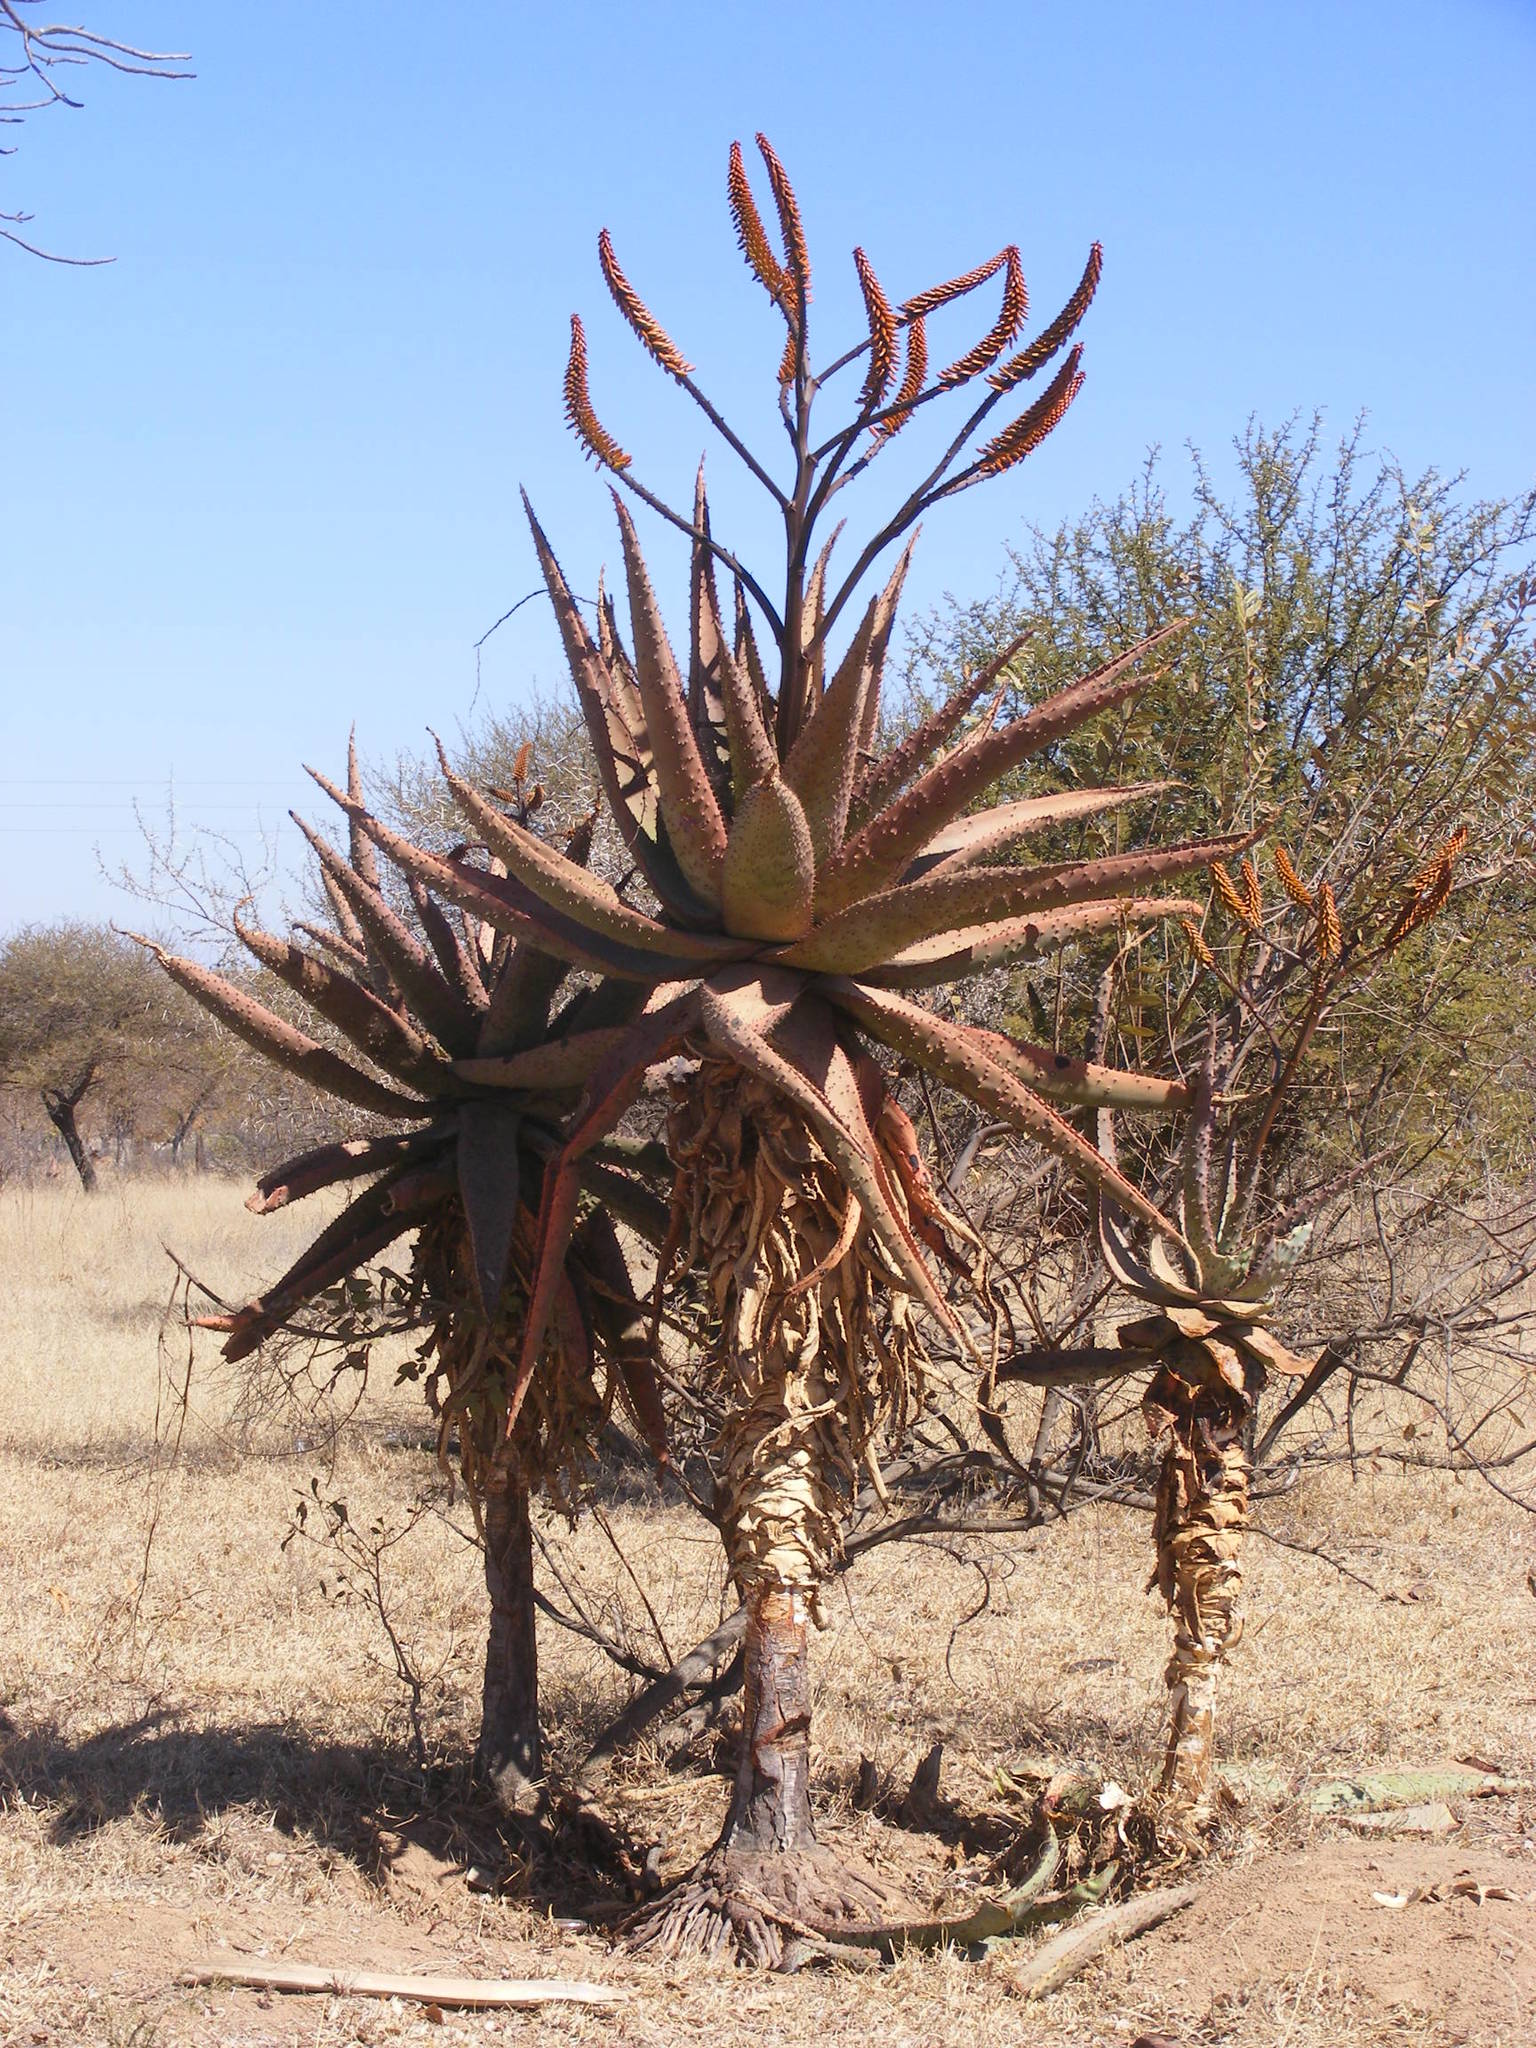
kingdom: Plantae
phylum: Tracheophyta
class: Liliopsida
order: Asparagales
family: Asphodelaceae
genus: Aloe
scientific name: Aloe marlothii
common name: Flat-flowered aloe
